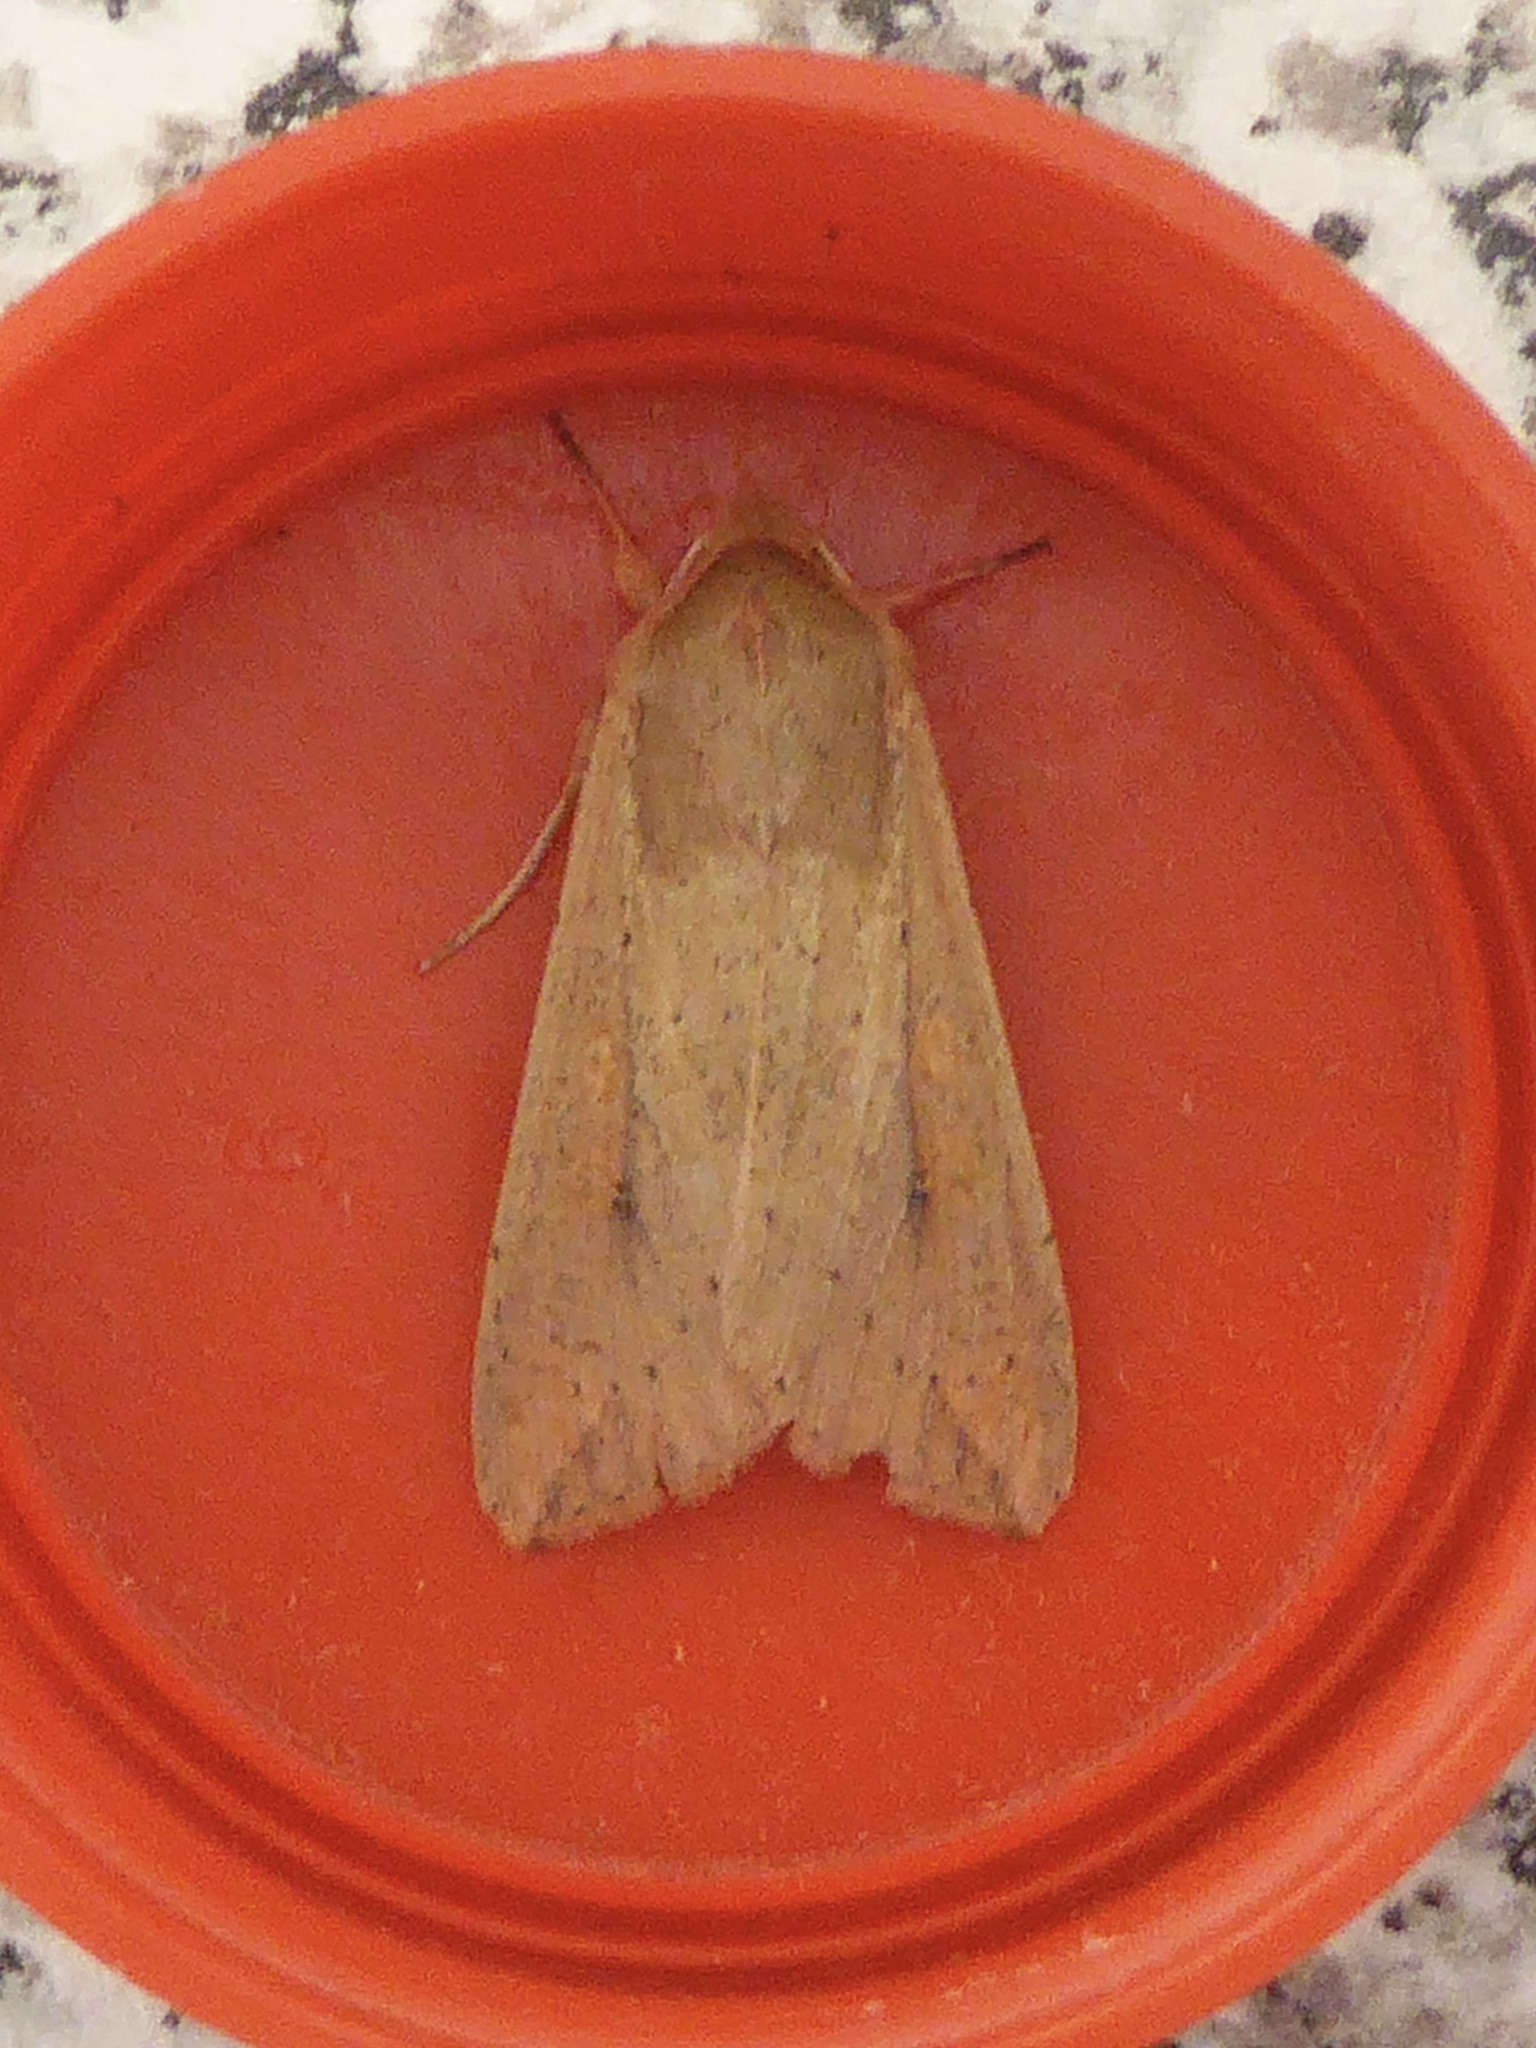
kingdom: Animalia
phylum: Arthropoda
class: Insecta
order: Lepidoptera
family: Noctuidae
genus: Mythimna
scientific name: Mythimna unipuncta
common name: White-speck
